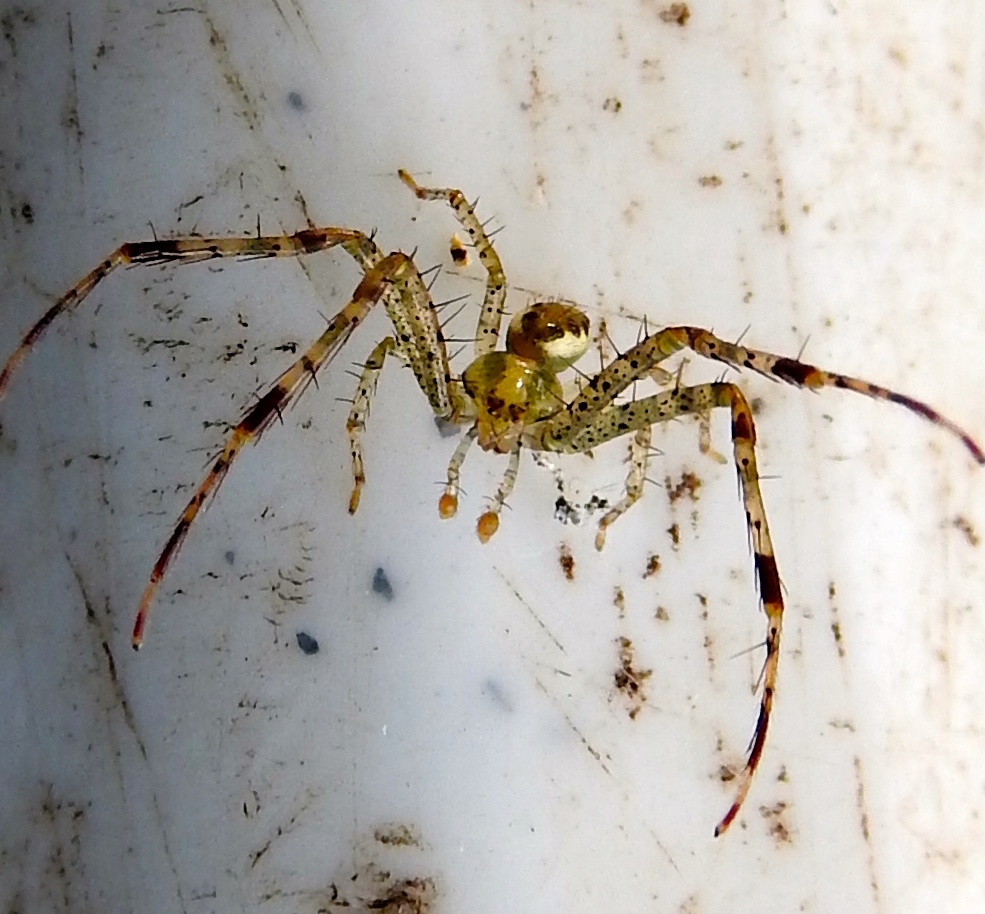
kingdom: Animalia
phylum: Arthropoda
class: Arachnida
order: Araneae
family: Thomisidae
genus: Isaloides
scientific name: Isaloides
